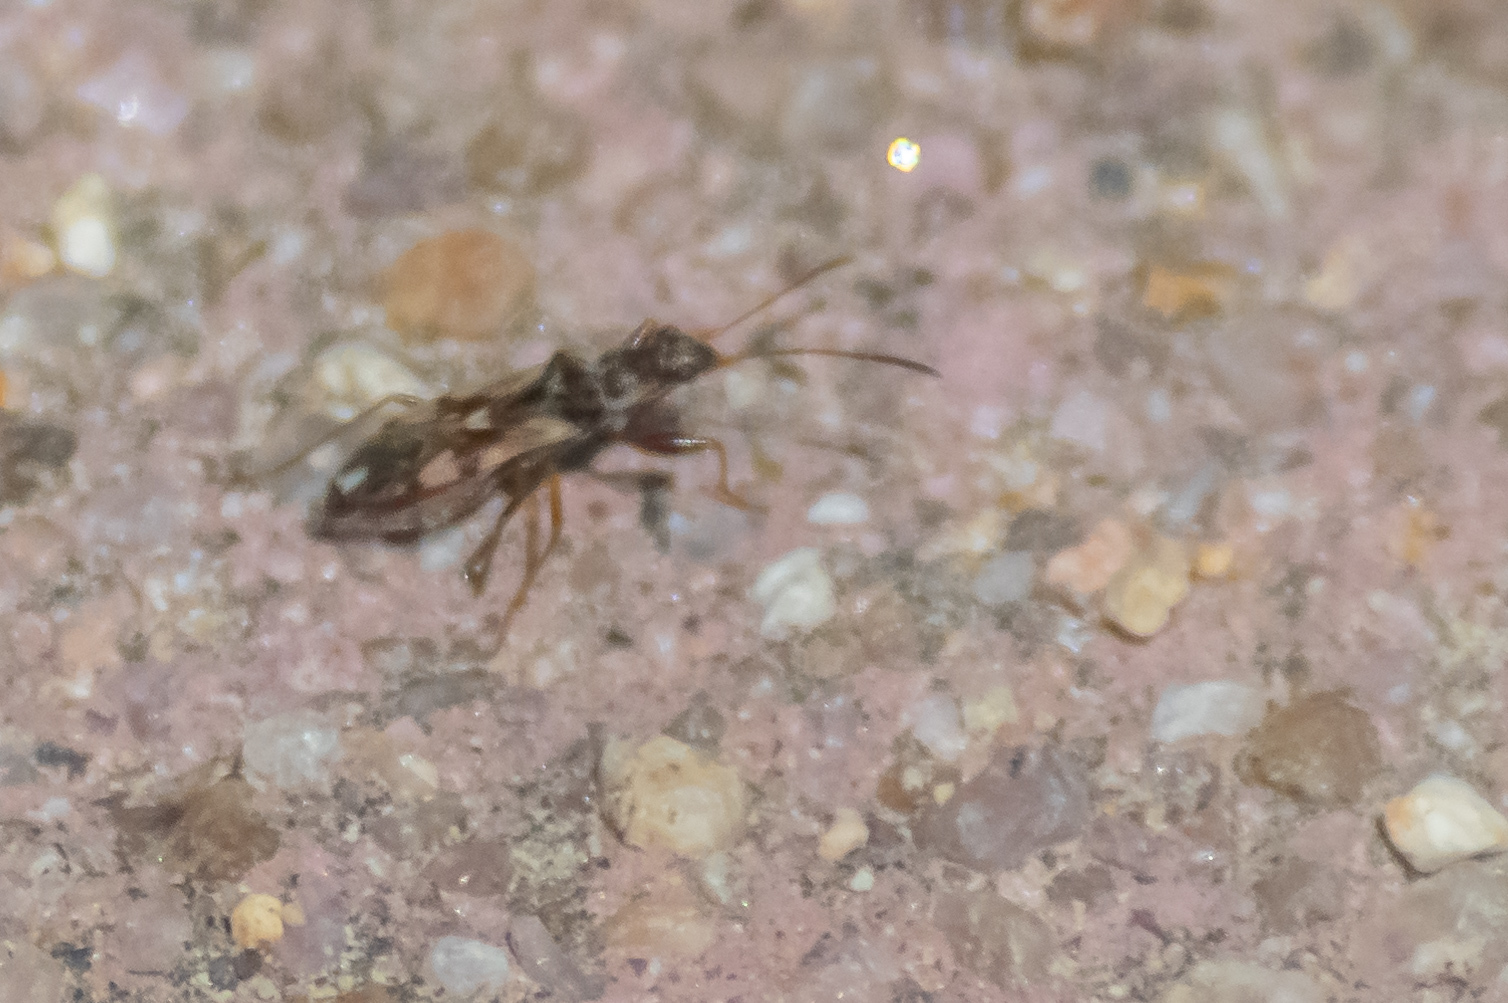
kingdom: Animalia
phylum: Arthropoda
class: Insecta
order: Hemiptera
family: Rhyparochromidae
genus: Neopamera
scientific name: Neopamera bilobata
